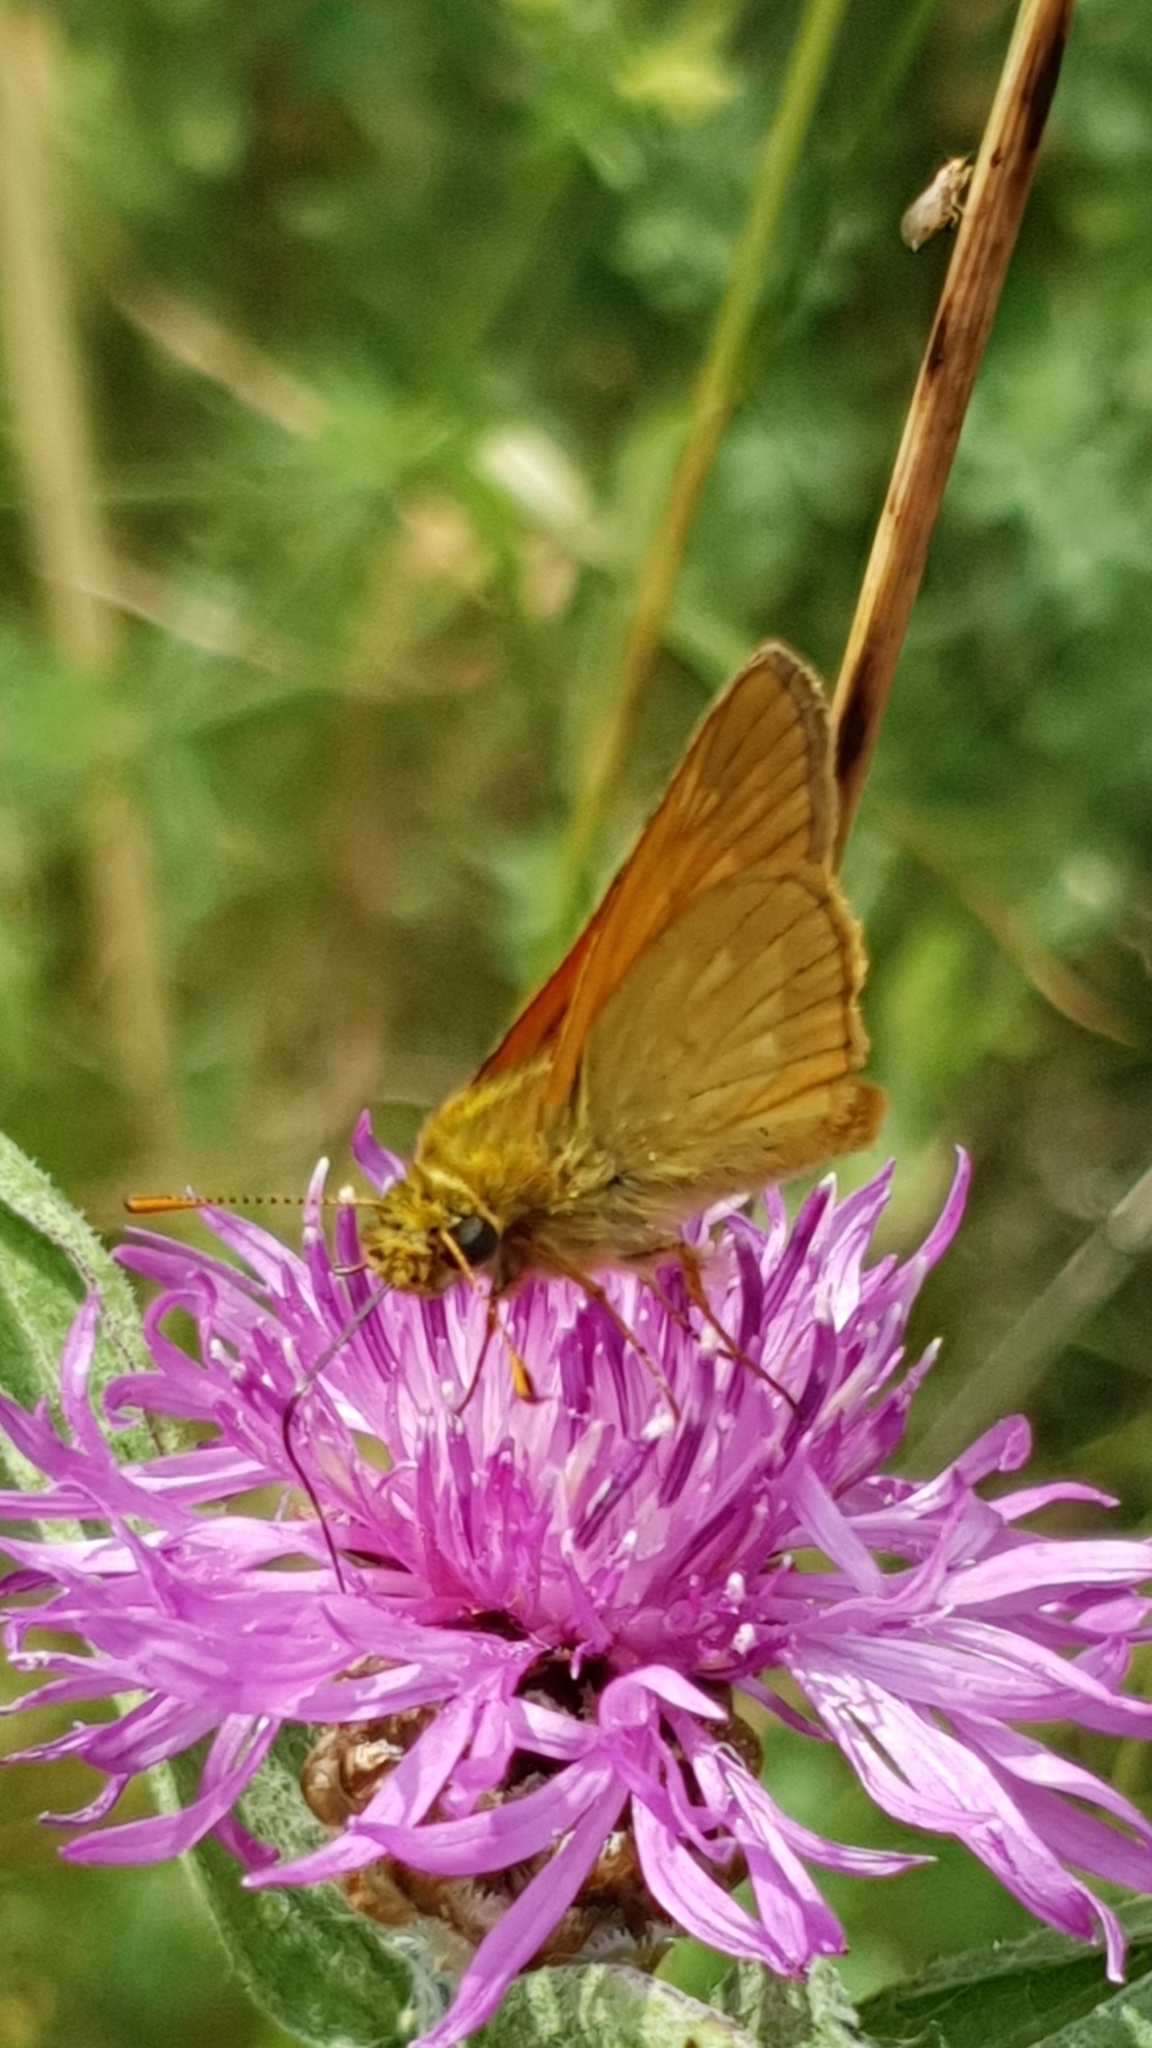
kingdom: Animalia
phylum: Arthropoda
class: Insecta
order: Lepidoptera
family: Hesperiidae
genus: Ochlodes
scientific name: Ochlodes venata
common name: Large skipper
